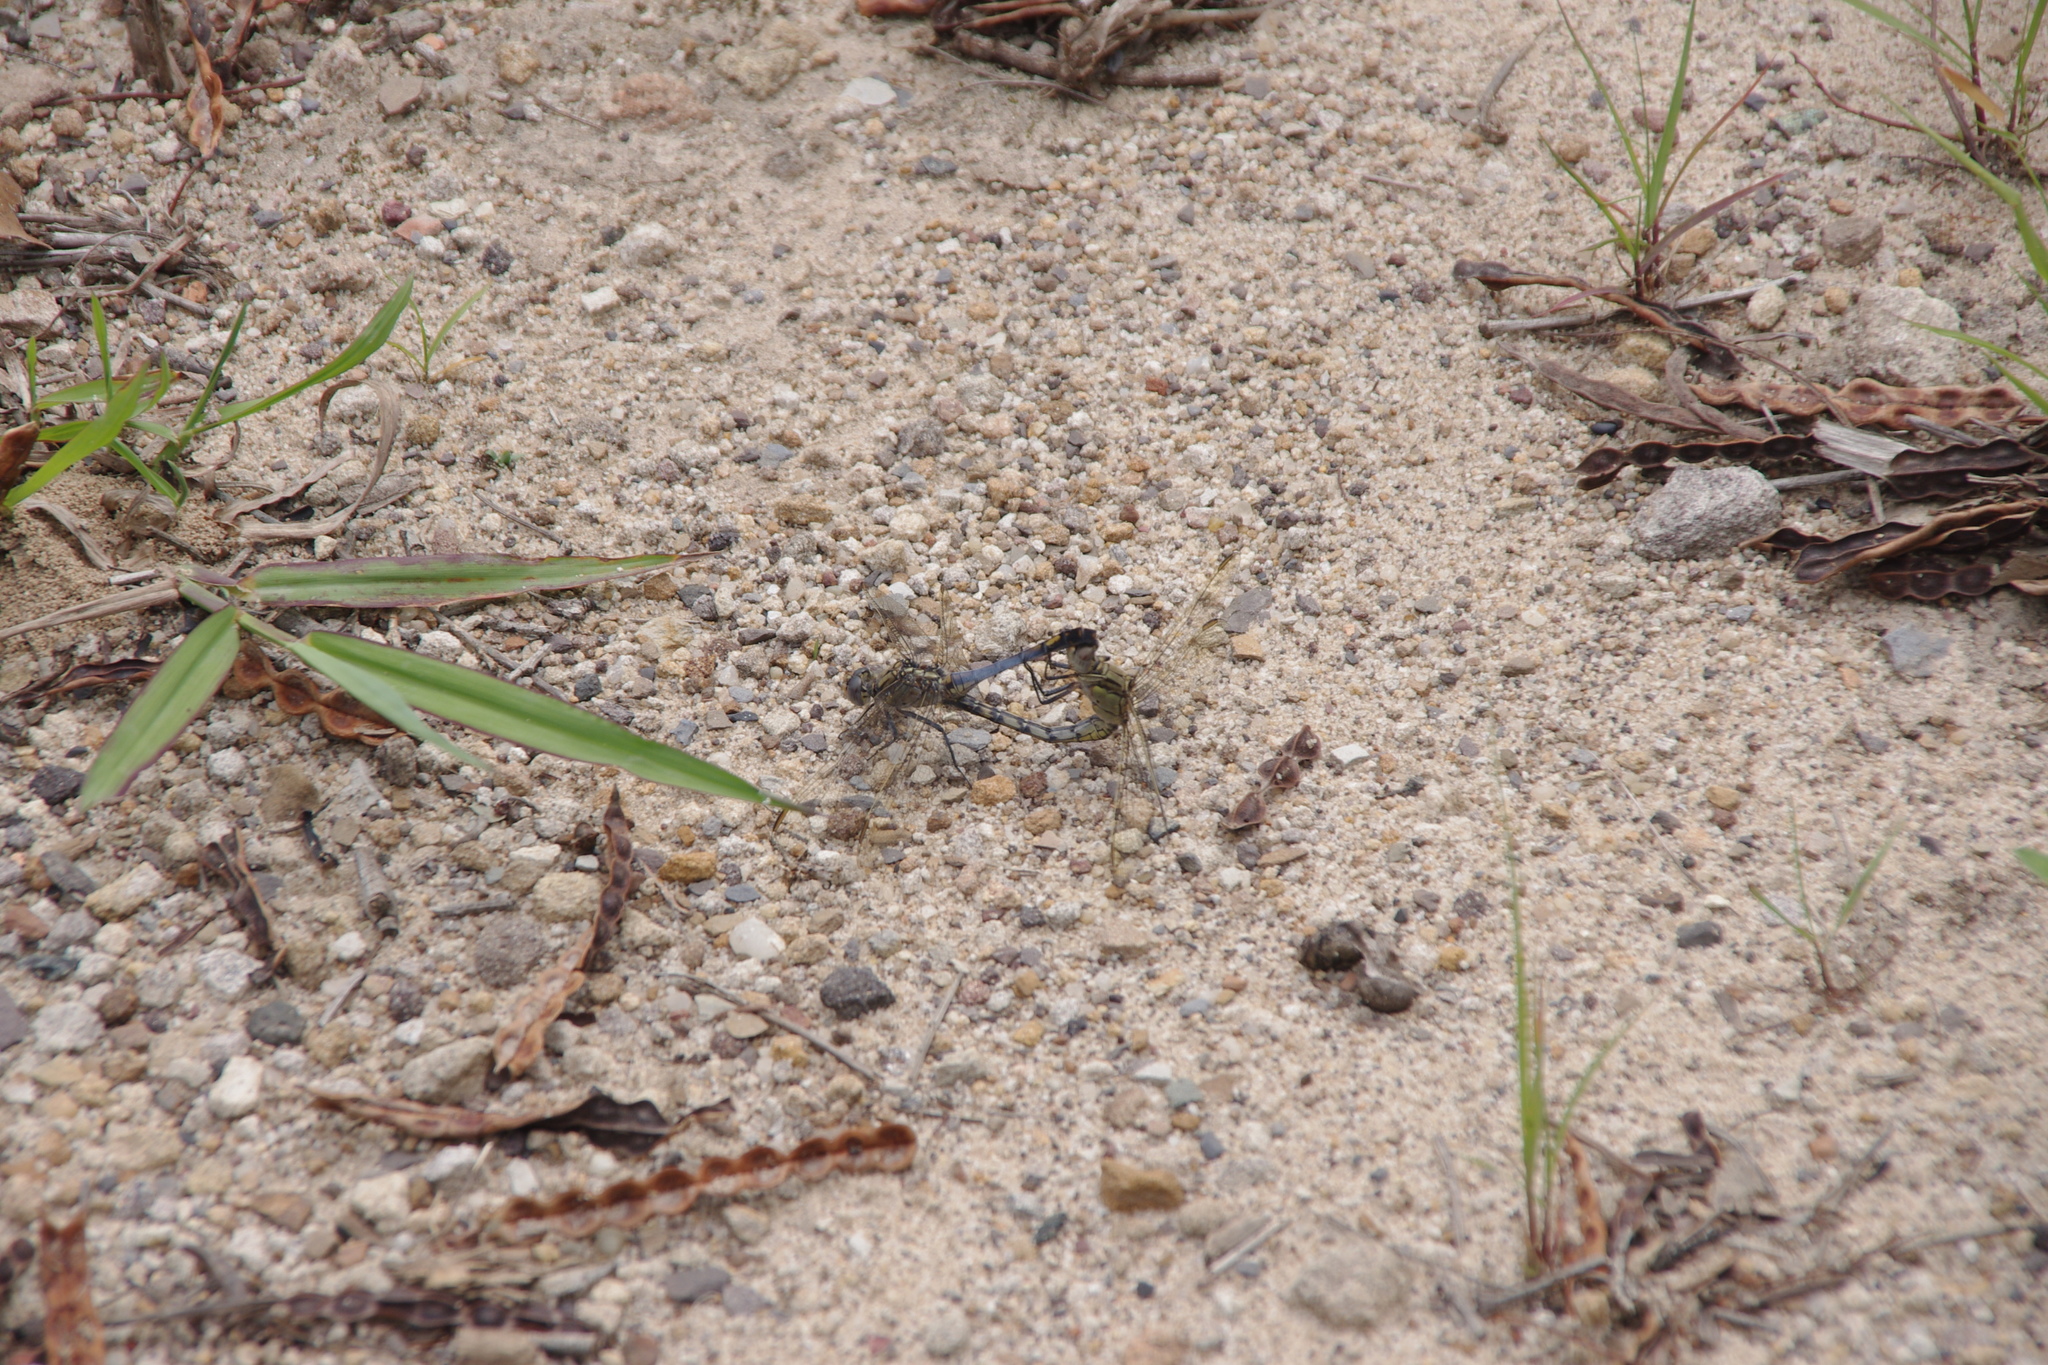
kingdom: Animalia
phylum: Arthropoda
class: Insecta
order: Odonata
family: Libellulidae
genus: Orthetrum
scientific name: Orthetrum caledonicum
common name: Blue skimmer
